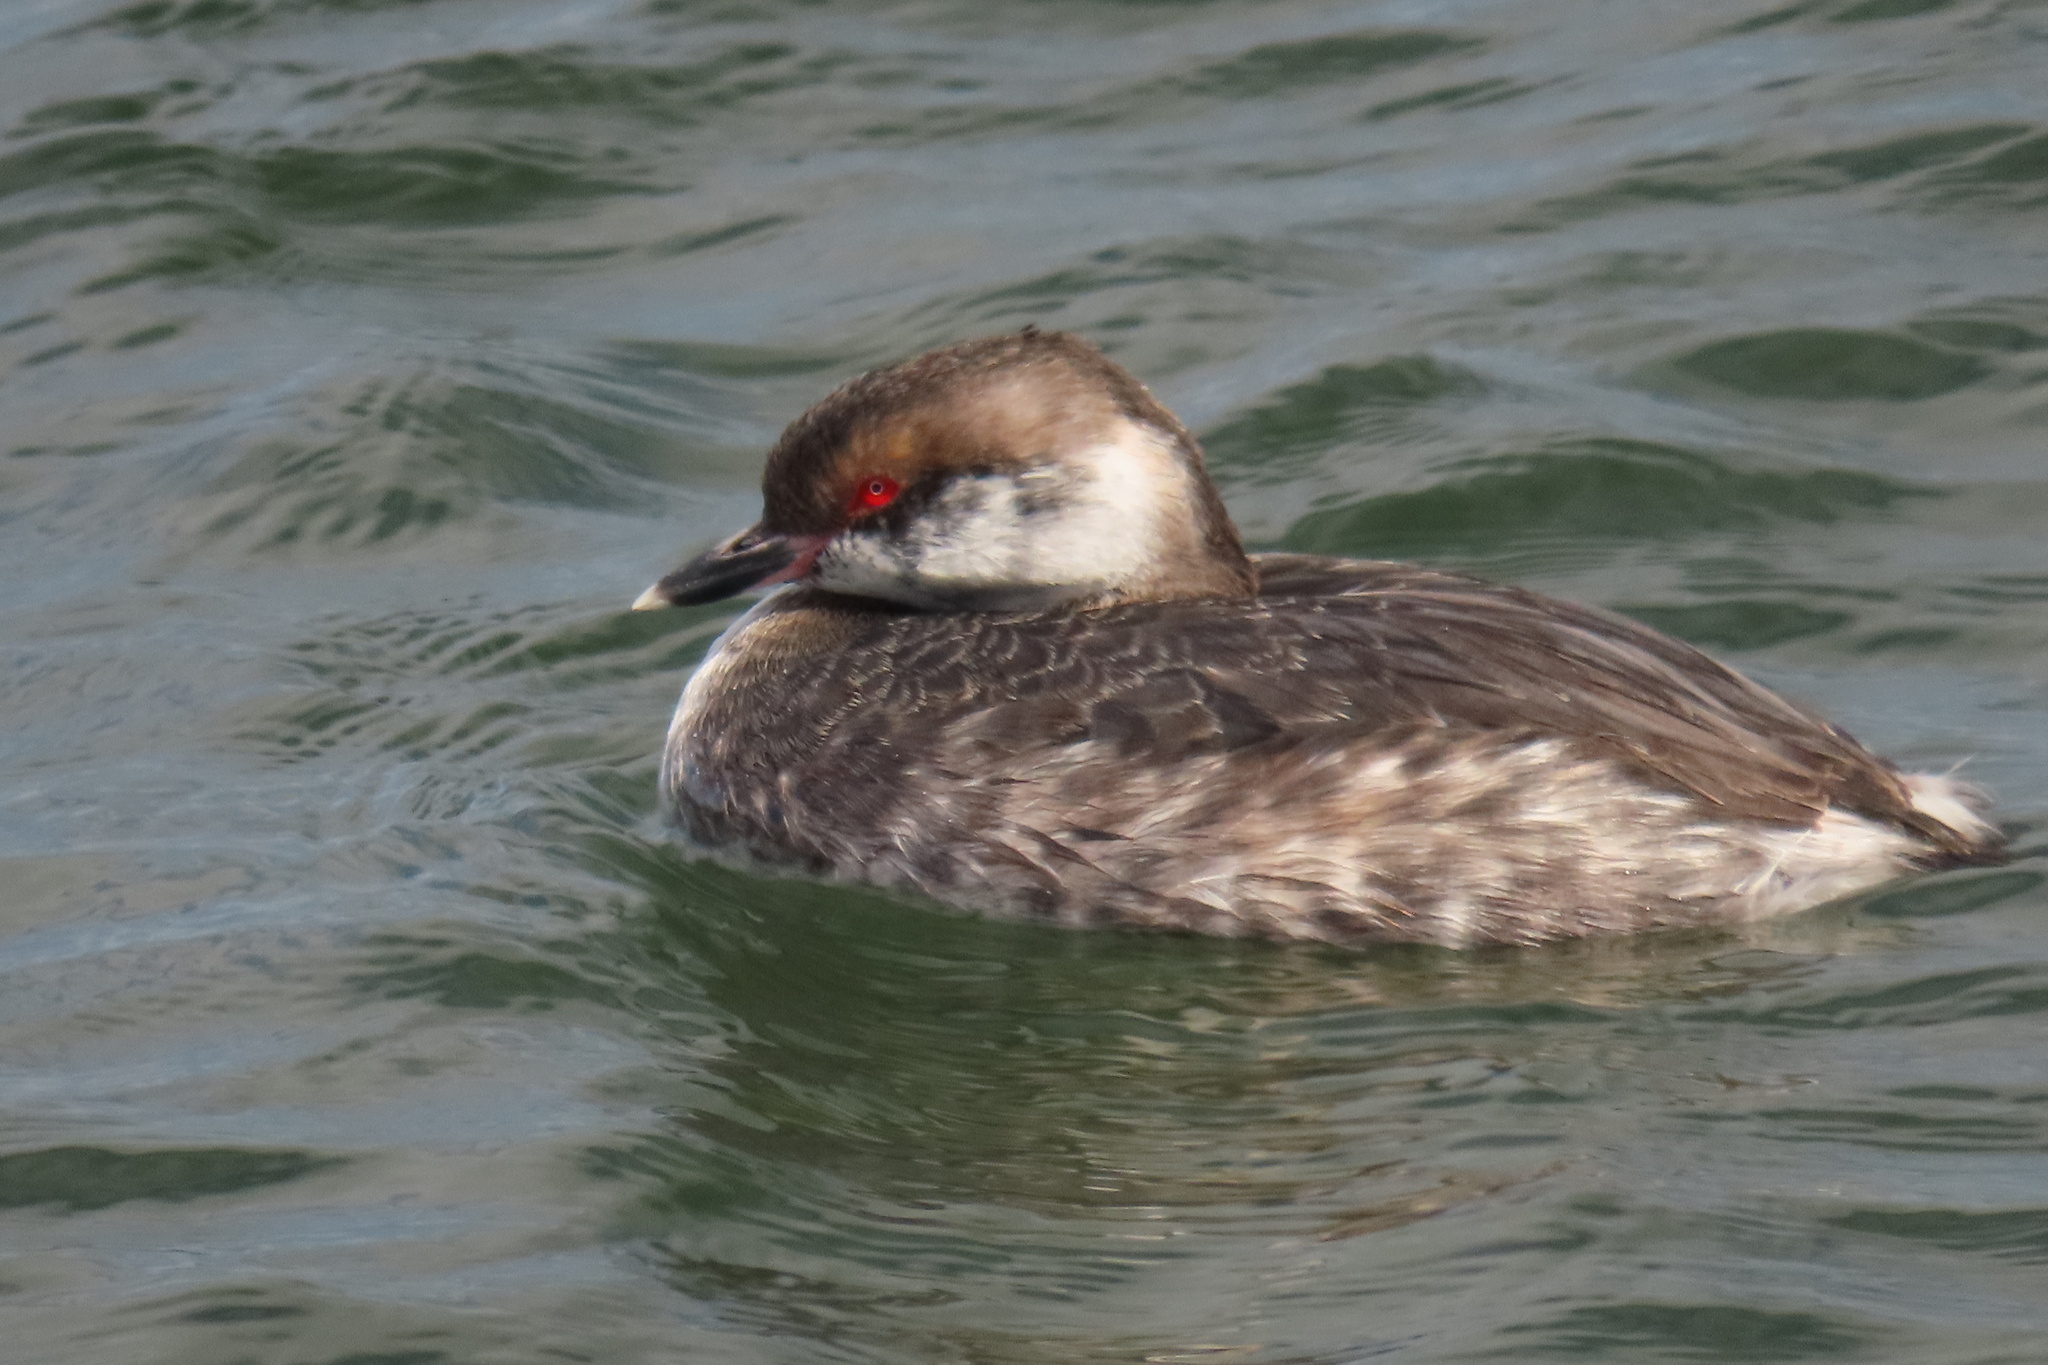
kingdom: Animalia
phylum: Chordata
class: Aves
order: Podicipediformes
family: Podicipedidae
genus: Podiceps
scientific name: Podiceps auritus
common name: Horned grebe
